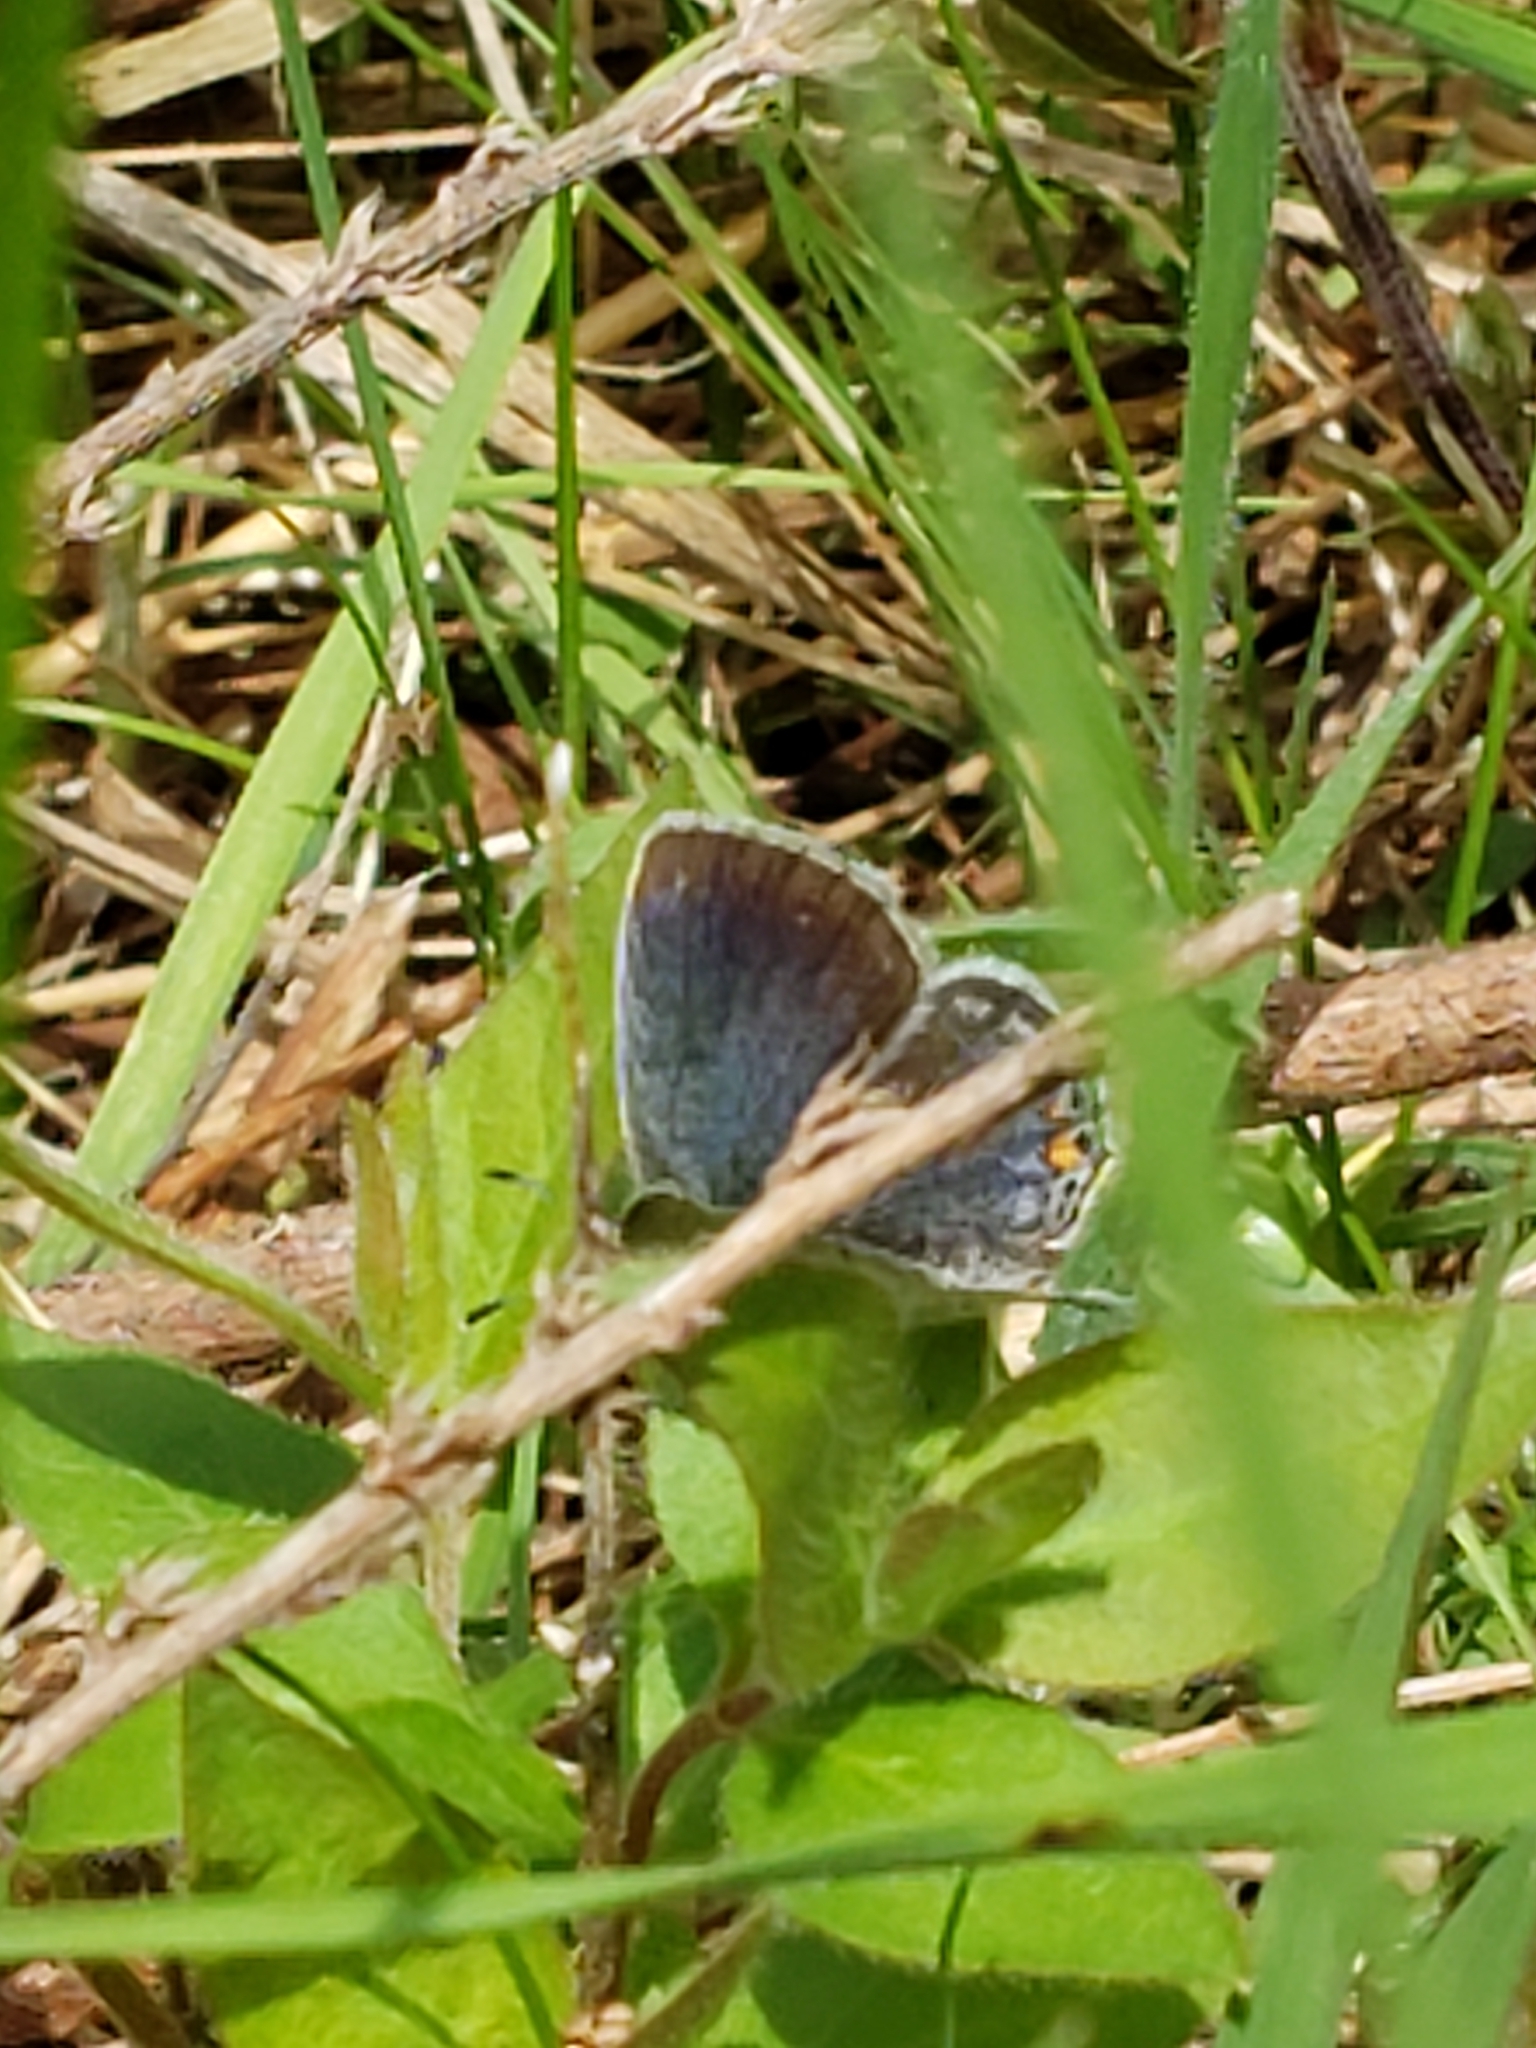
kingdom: Animalia
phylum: Arthropoda
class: Insecta
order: Lepidoptera
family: Lycaenidae
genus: Elkalyce
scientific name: Elkalyce comyntas
